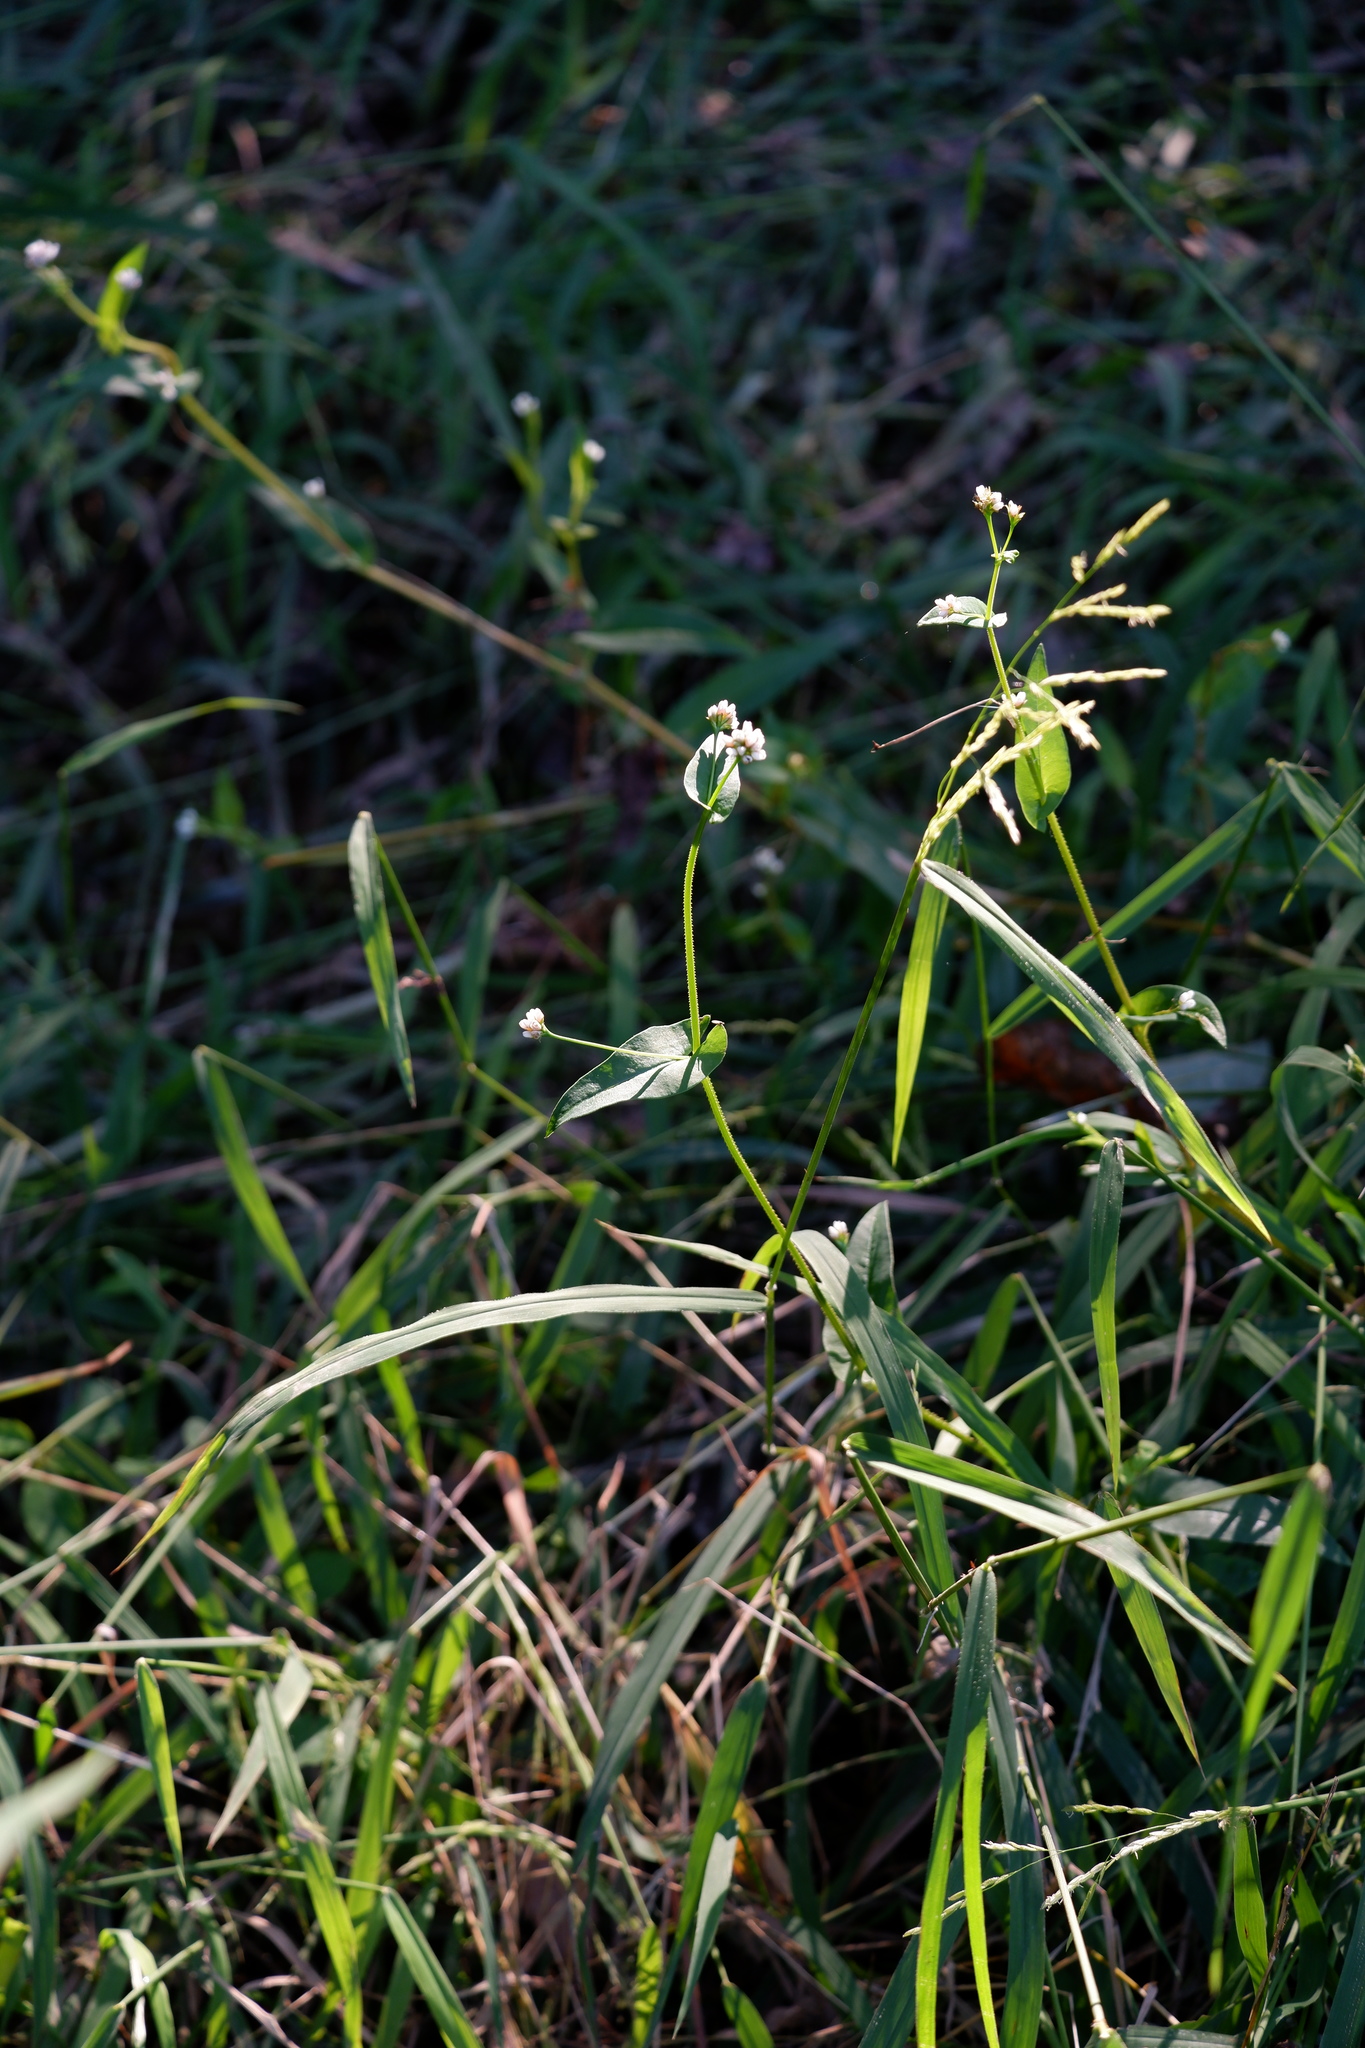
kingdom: Plantae
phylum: Tracheophyta
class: Magnoliopsida
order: Caryophyllales
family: Polygonaceae
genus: Persicaria
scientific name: Persicaria sagittata
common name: American tearthumb
